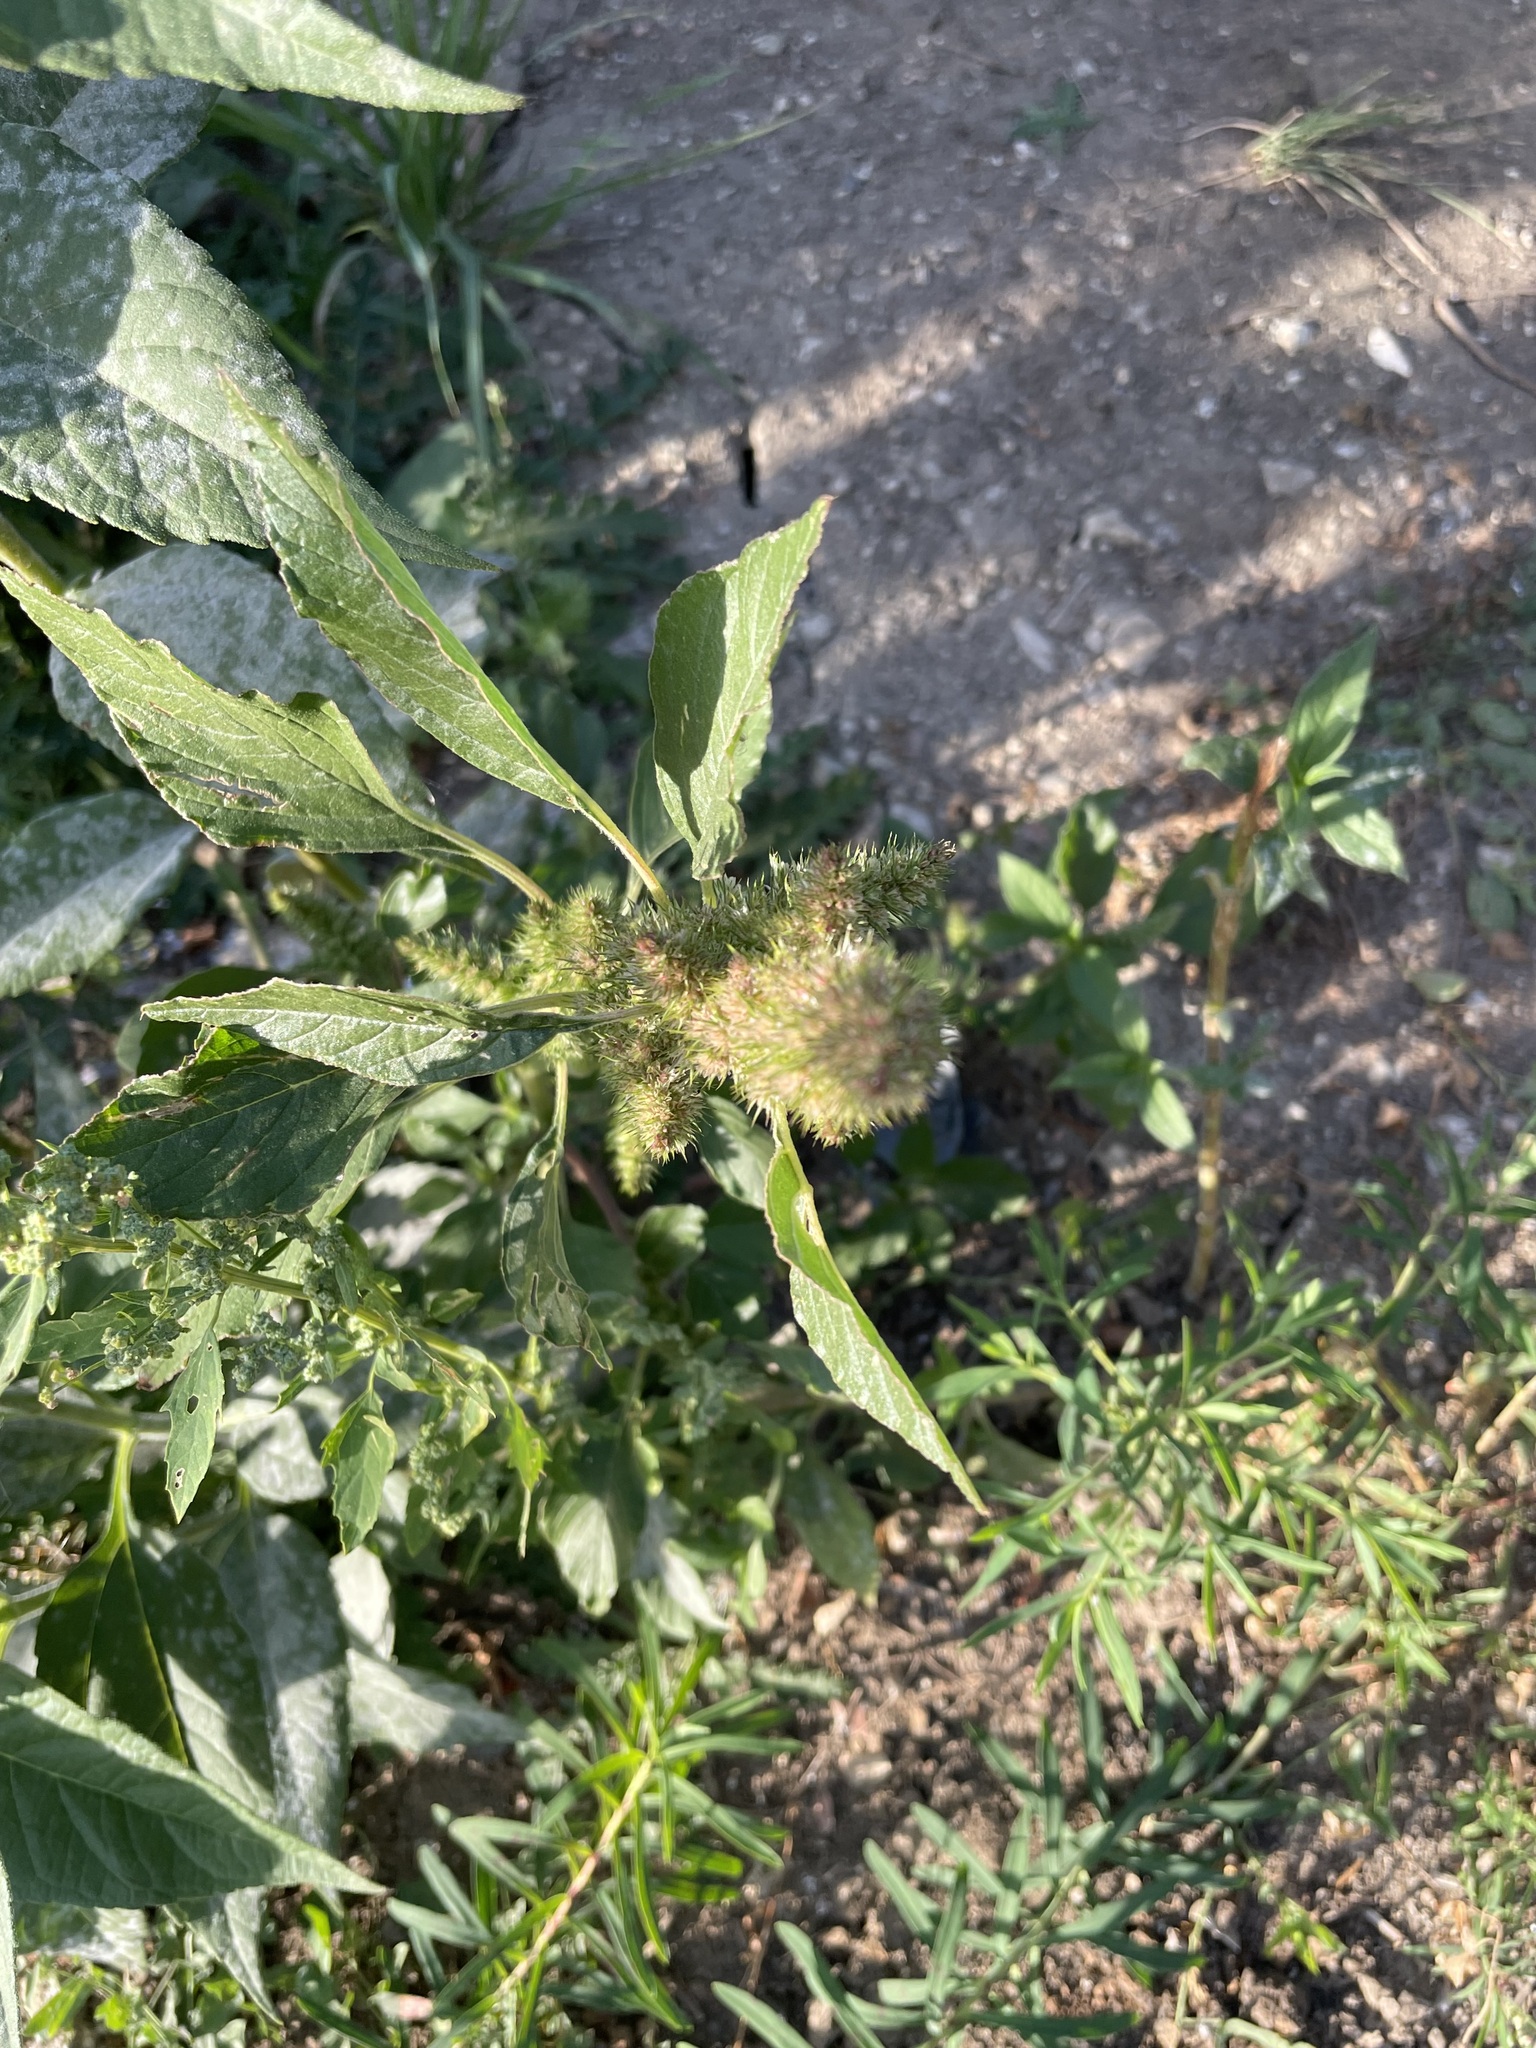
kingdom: Plantae
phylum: Tracheophyta
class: Magnoliopsida
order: Caryophyllales
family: Amaranthaceae
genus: Amaranthus
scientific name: Amaranthus retroflexus
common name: Redroot amaranth
